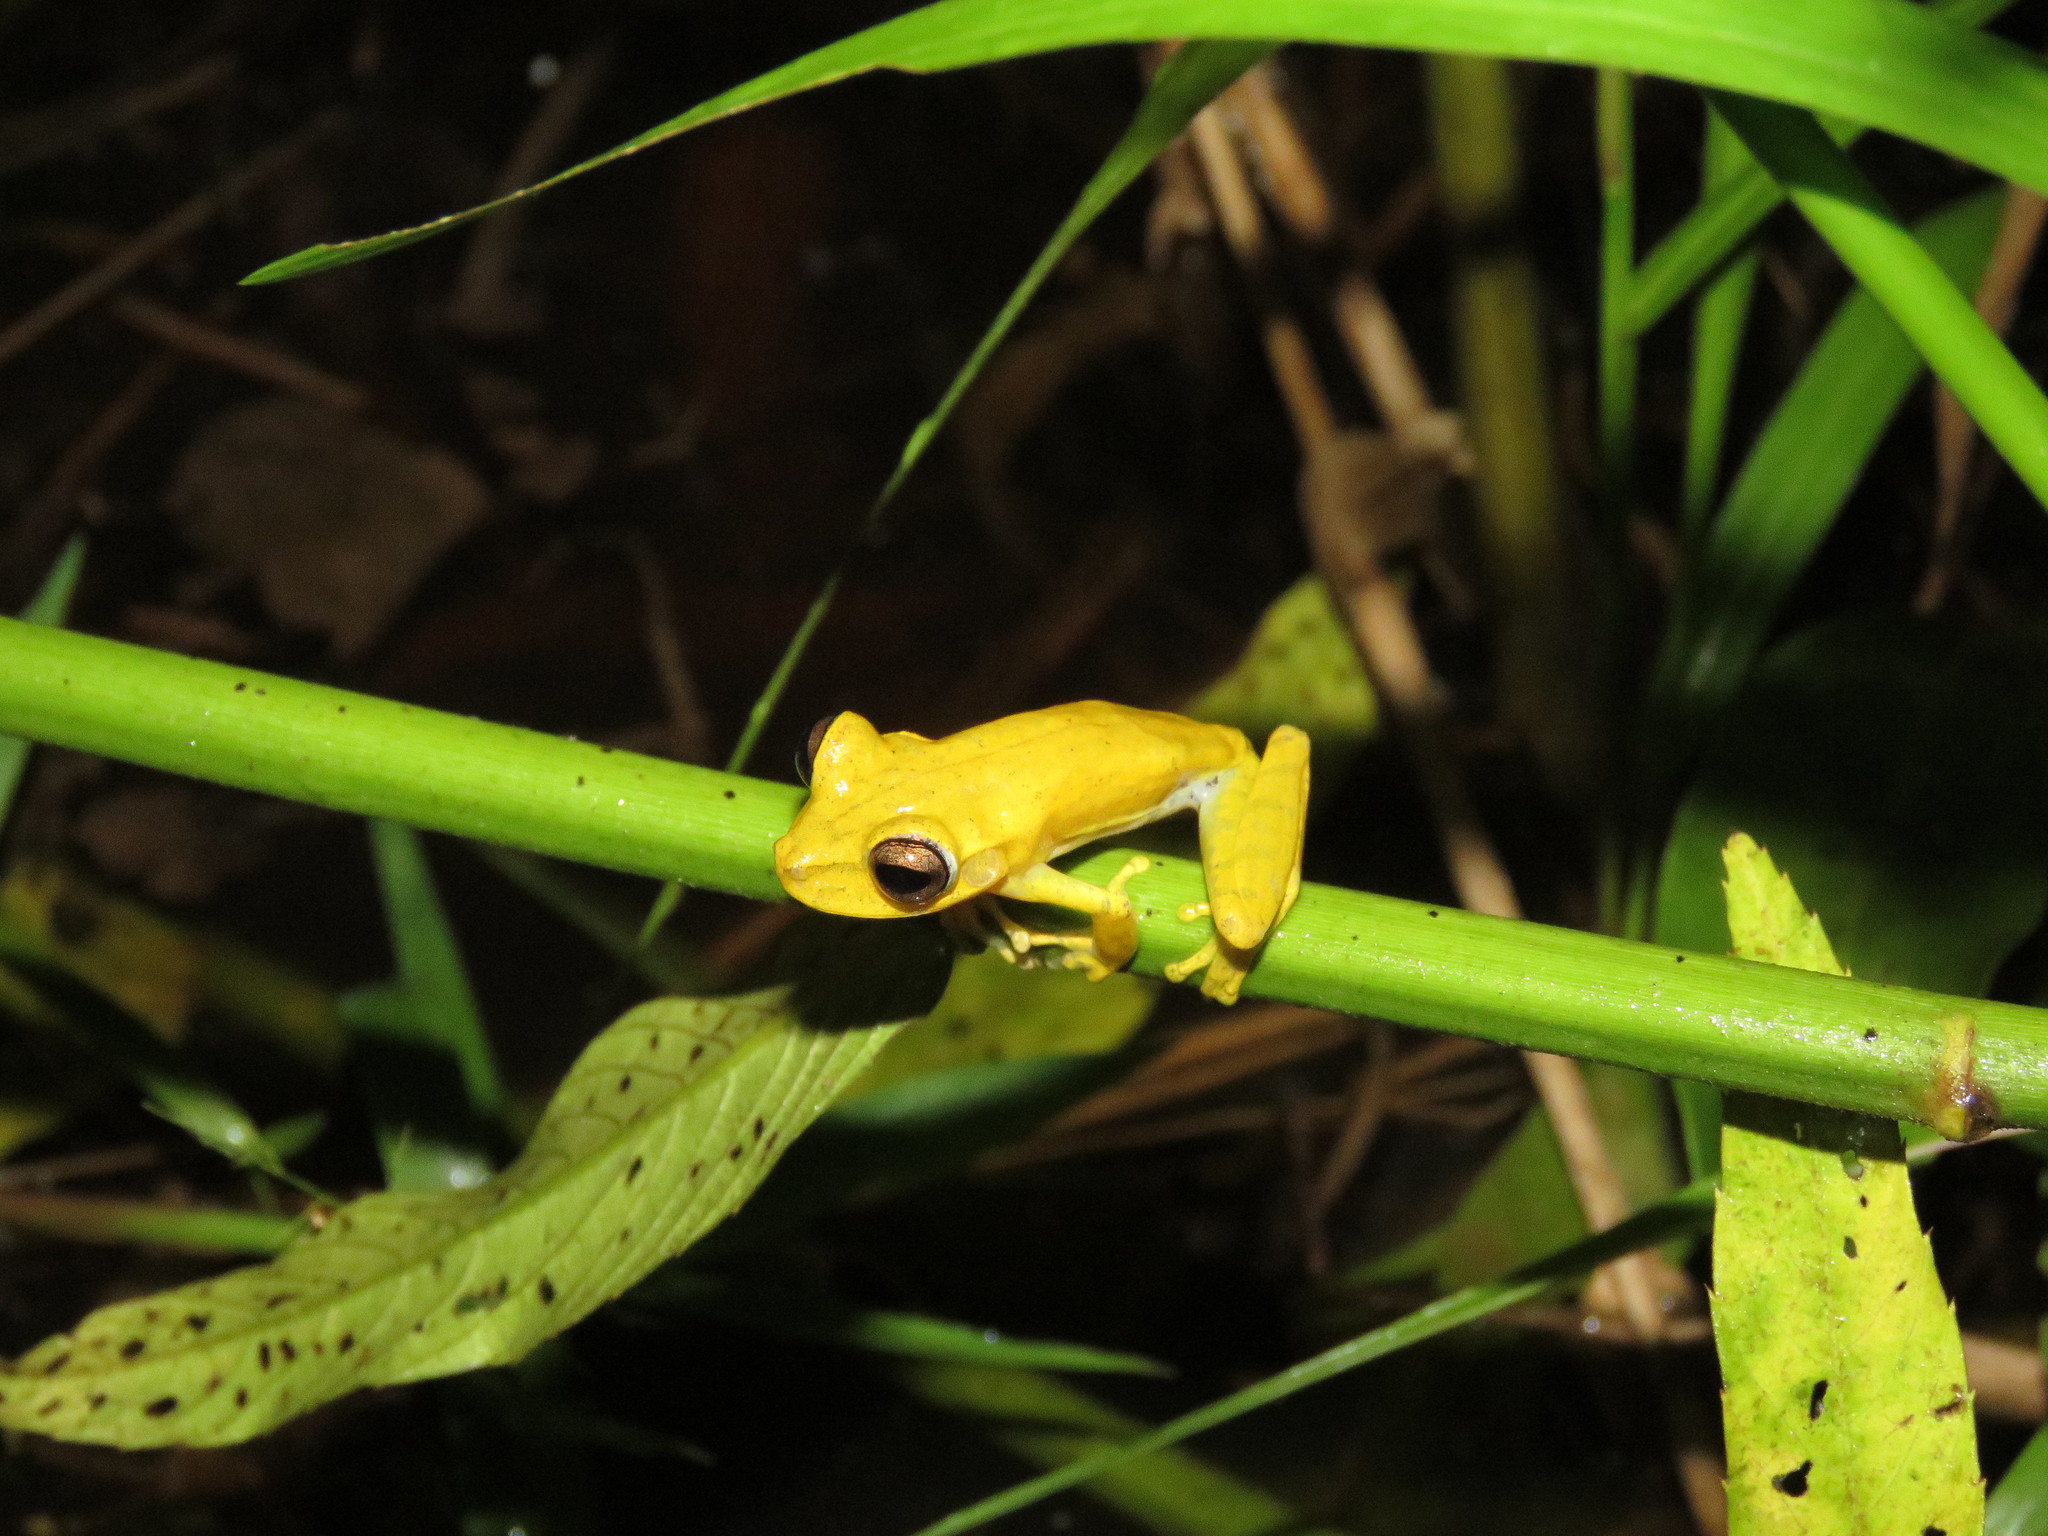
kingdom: Animalia
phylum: Chordata
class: Amphibia
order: Anura
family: Hylidae
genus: Boana
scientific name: Boana steinbachi
